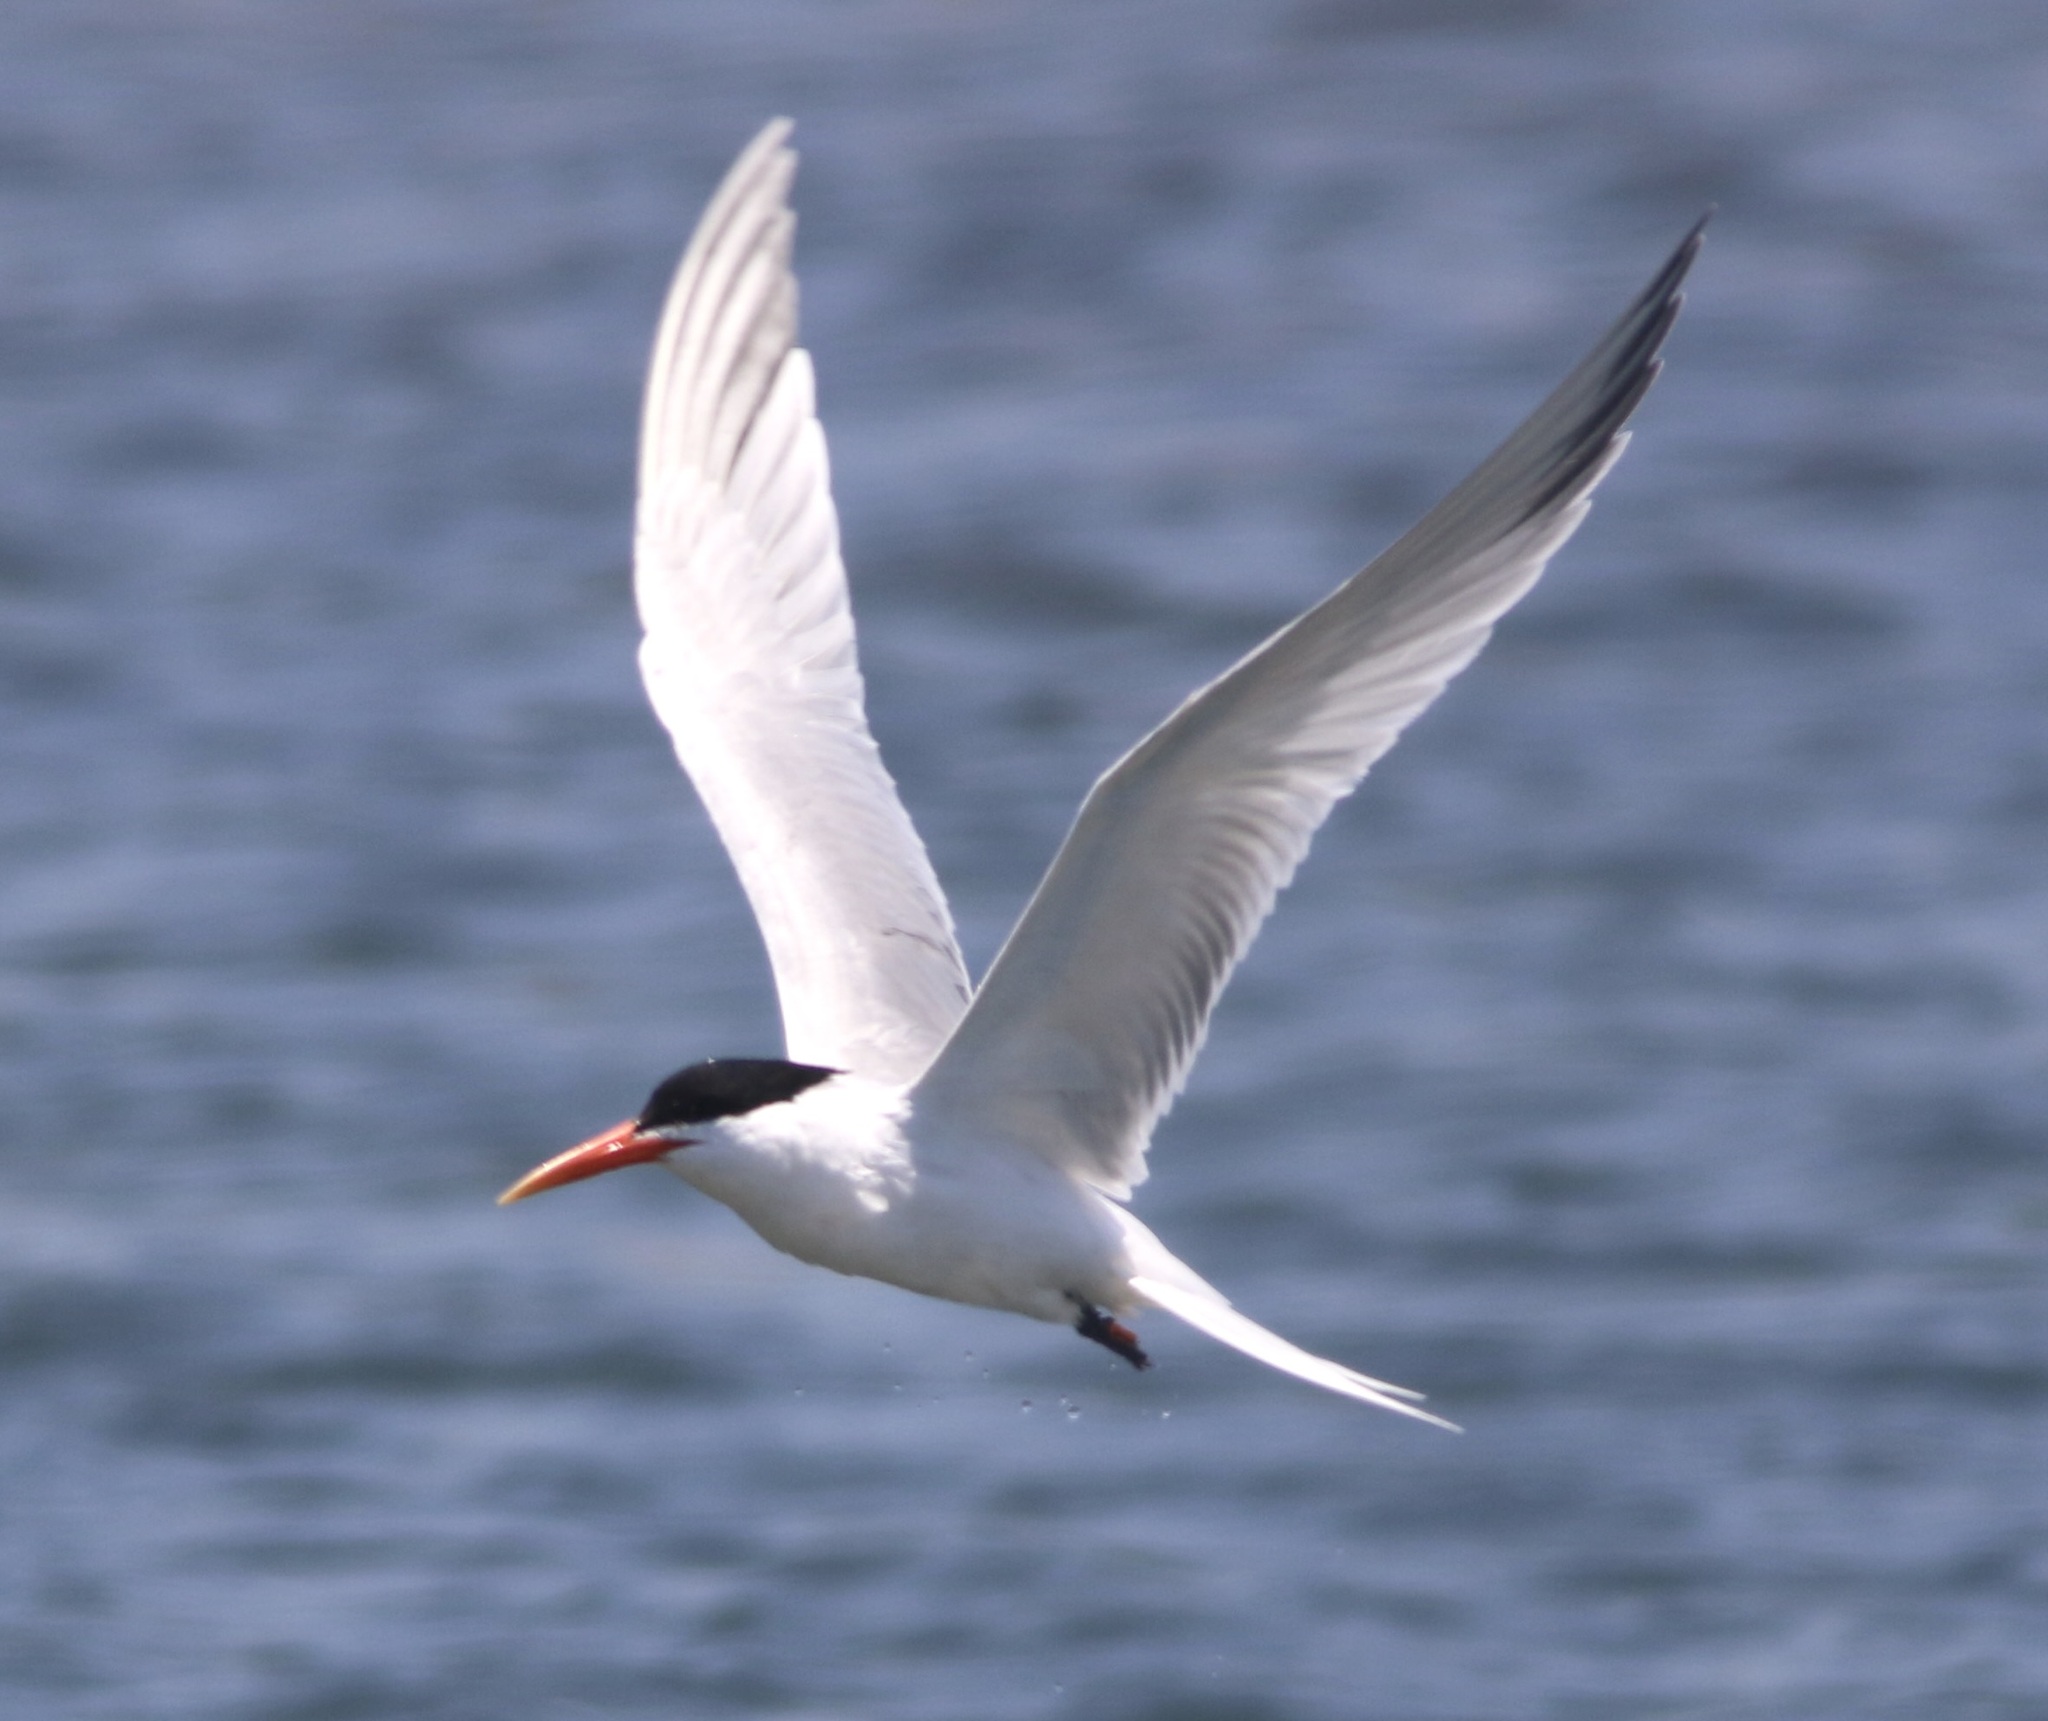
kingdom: Animalia
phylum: Chordata
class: Aves
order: Charadriiformes
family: Laridae
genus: Thalasseus
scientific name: Thalasseus elegans
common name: Elegant tern
